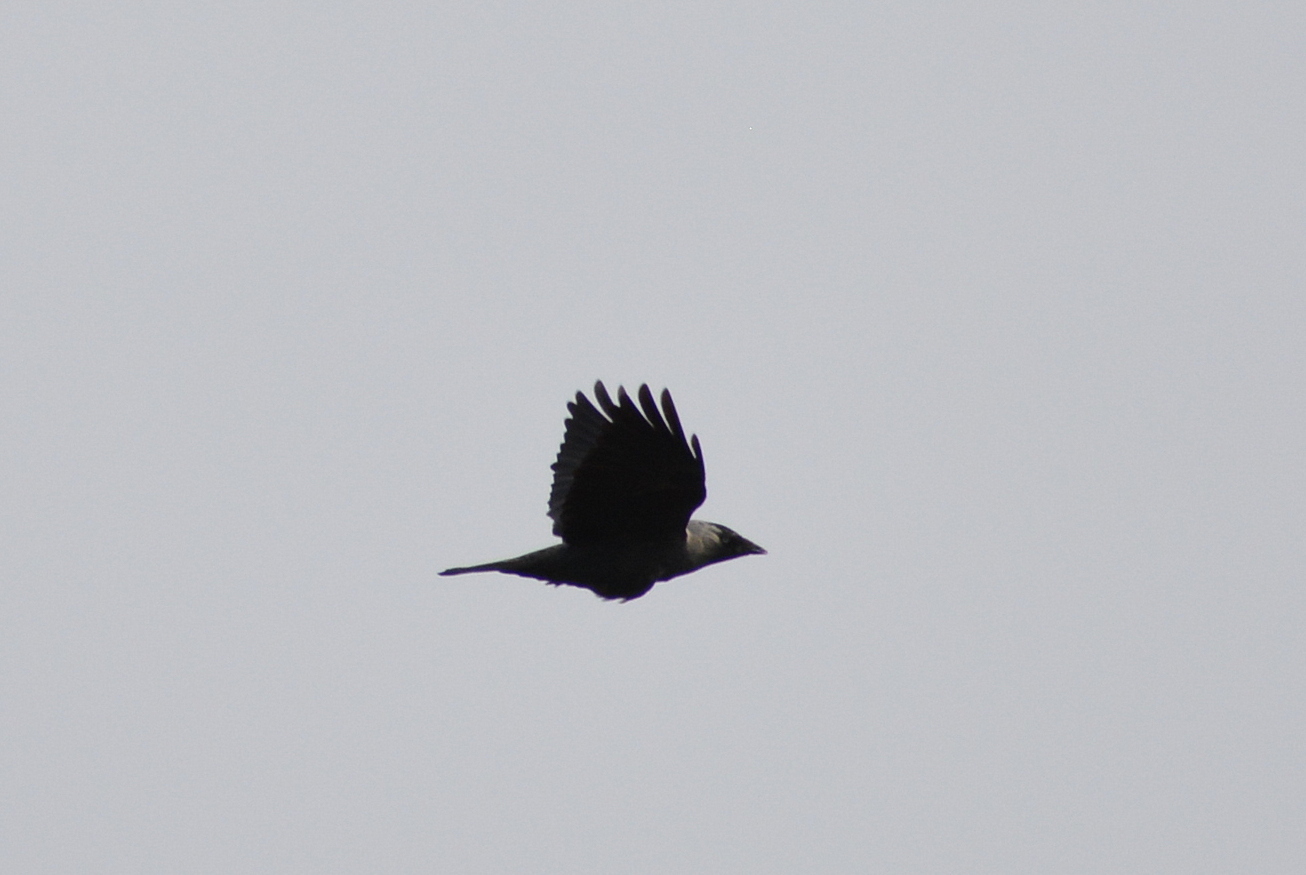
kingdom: Animalia
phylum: Chordata
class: Aves
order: Passeriformes
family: Corvidae
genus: Coloeus
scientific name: Coloeus monedula
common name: Western jackdaw
